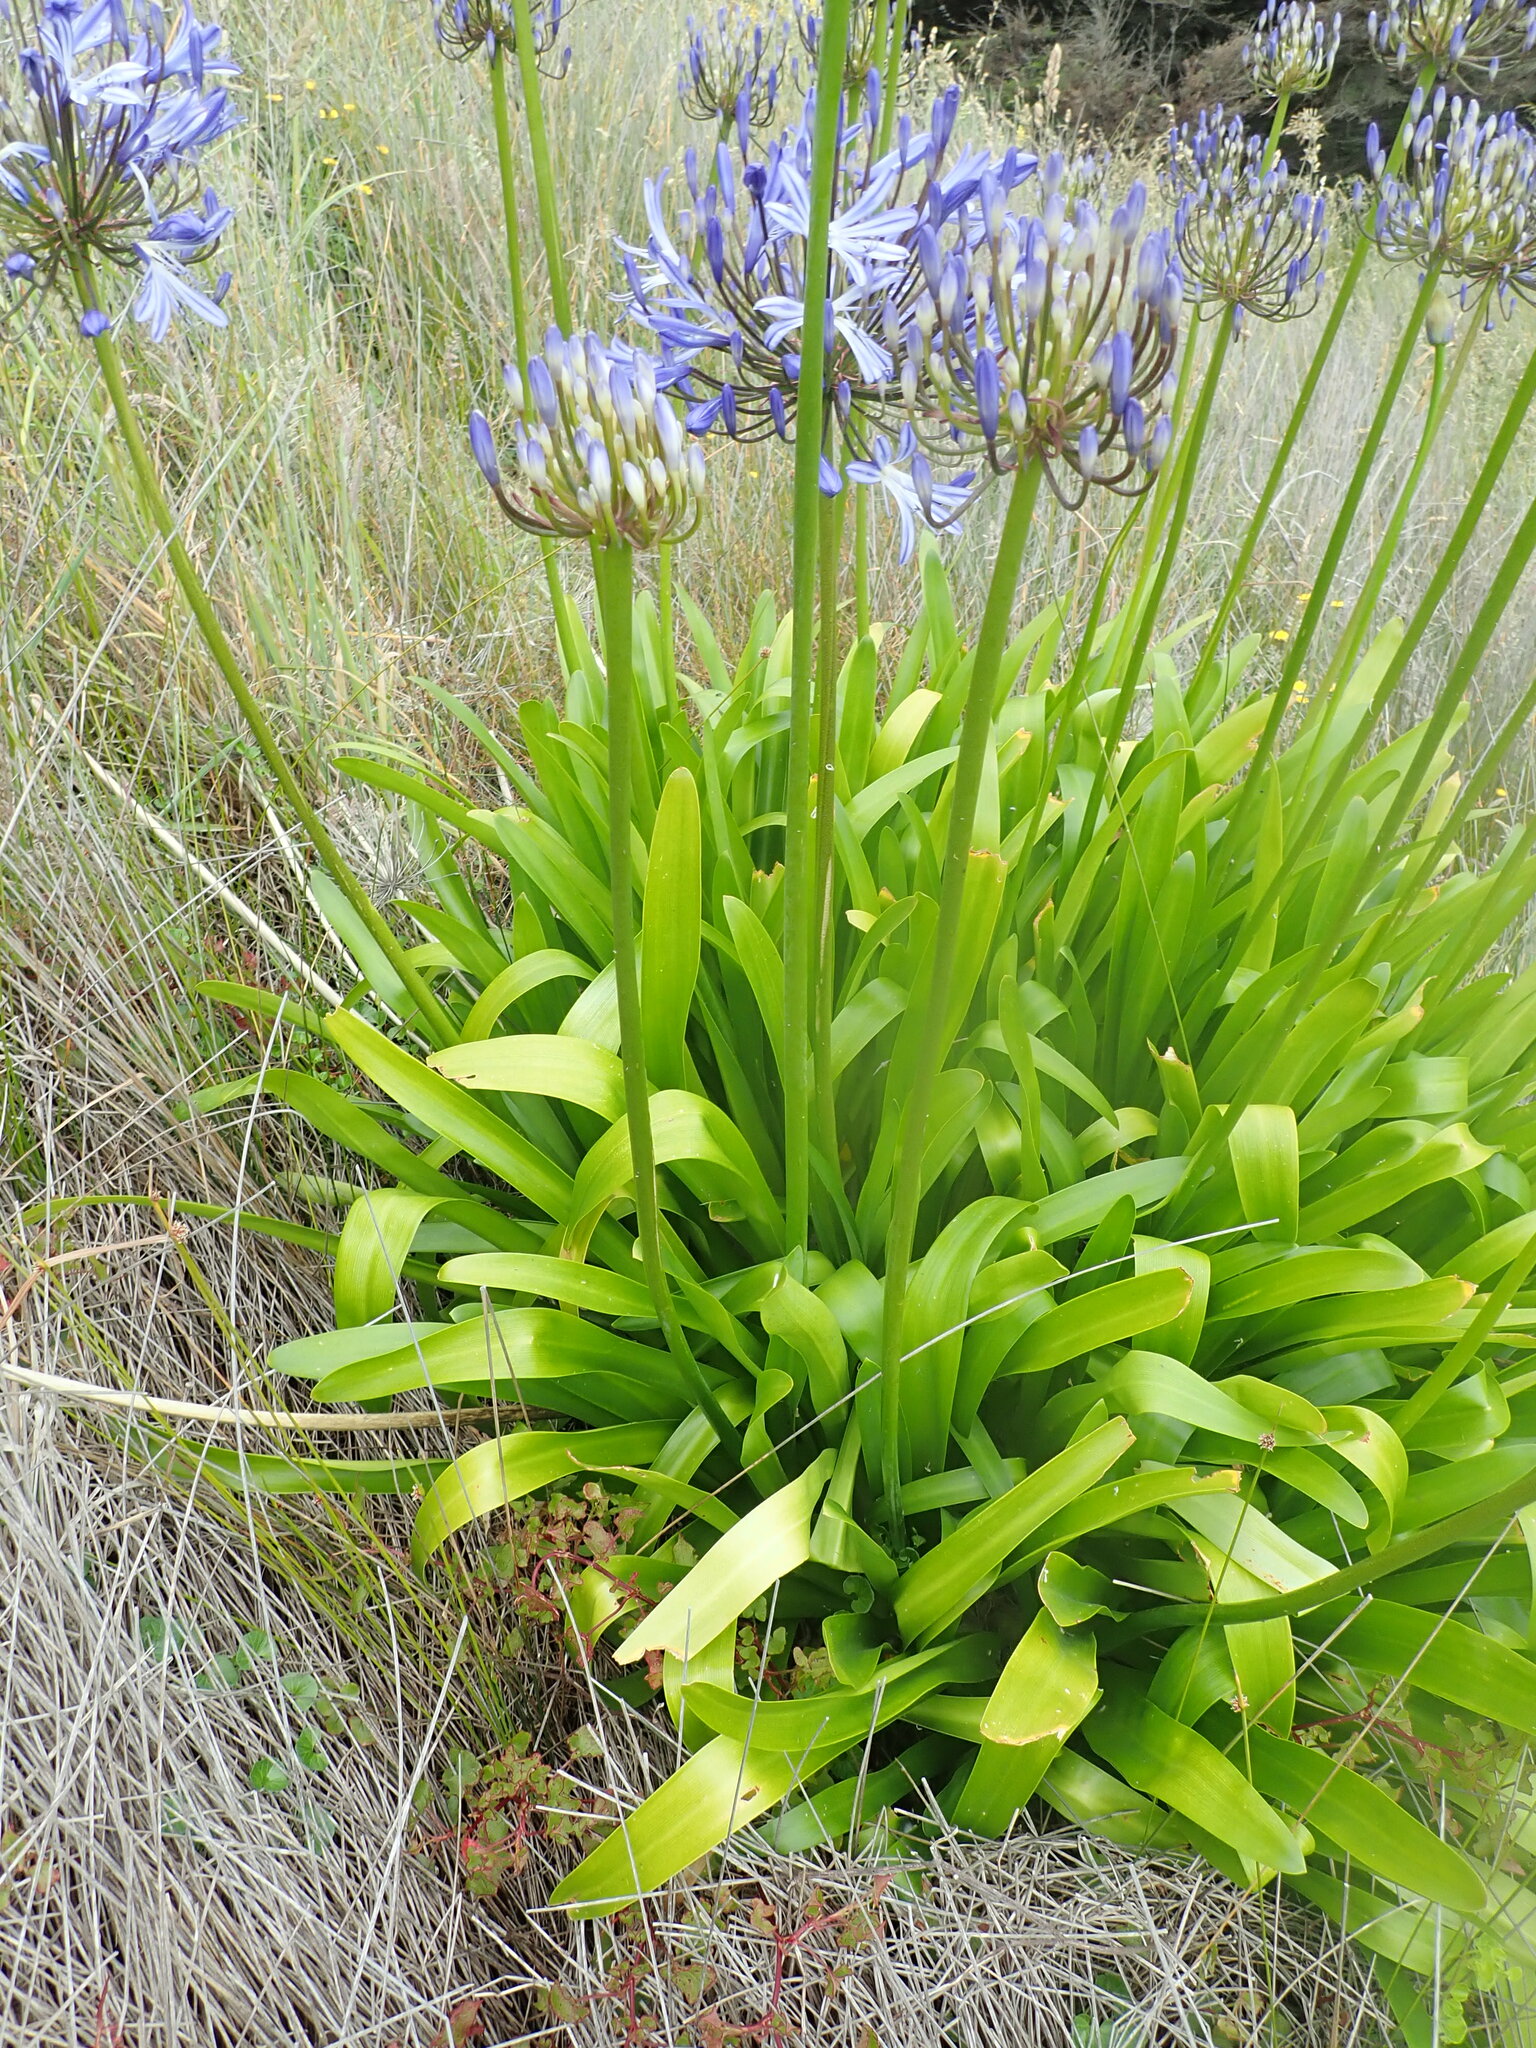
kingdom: Plantae
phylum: Tracheophyta
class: Liliopsida
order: Asparagales
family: Amaryllidaceae
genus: Agapanthus
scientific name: Agapanthus praecox
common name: African-lily
